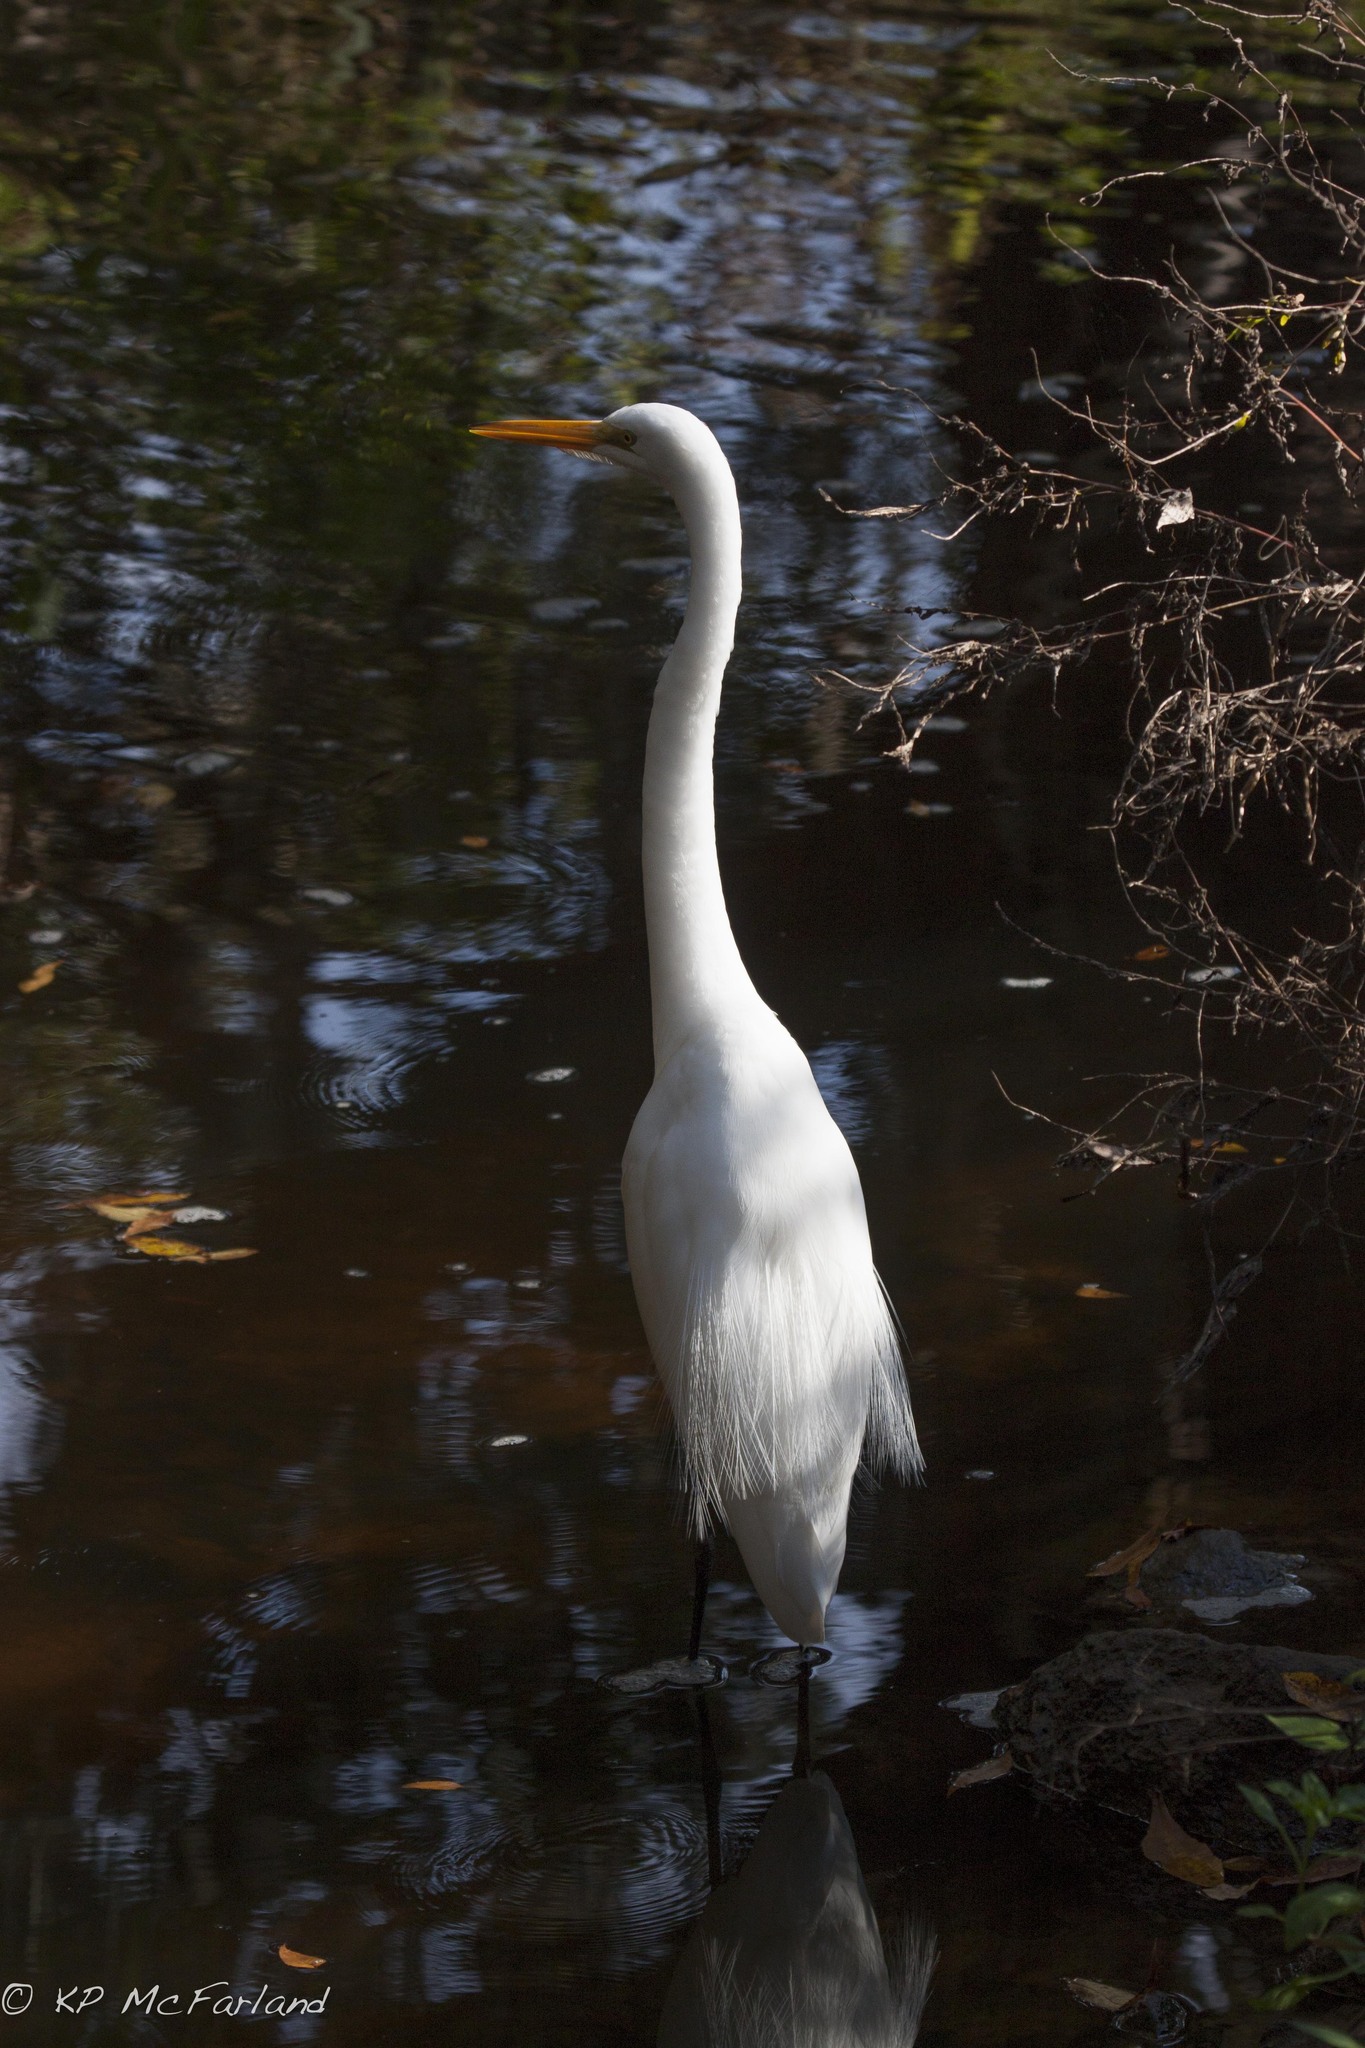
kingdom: Animalia
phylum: Chordata
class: Aves
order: Pelecaniformes
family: Ardeidae
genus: Ardea
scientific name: Ardea alba
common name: Great egret
